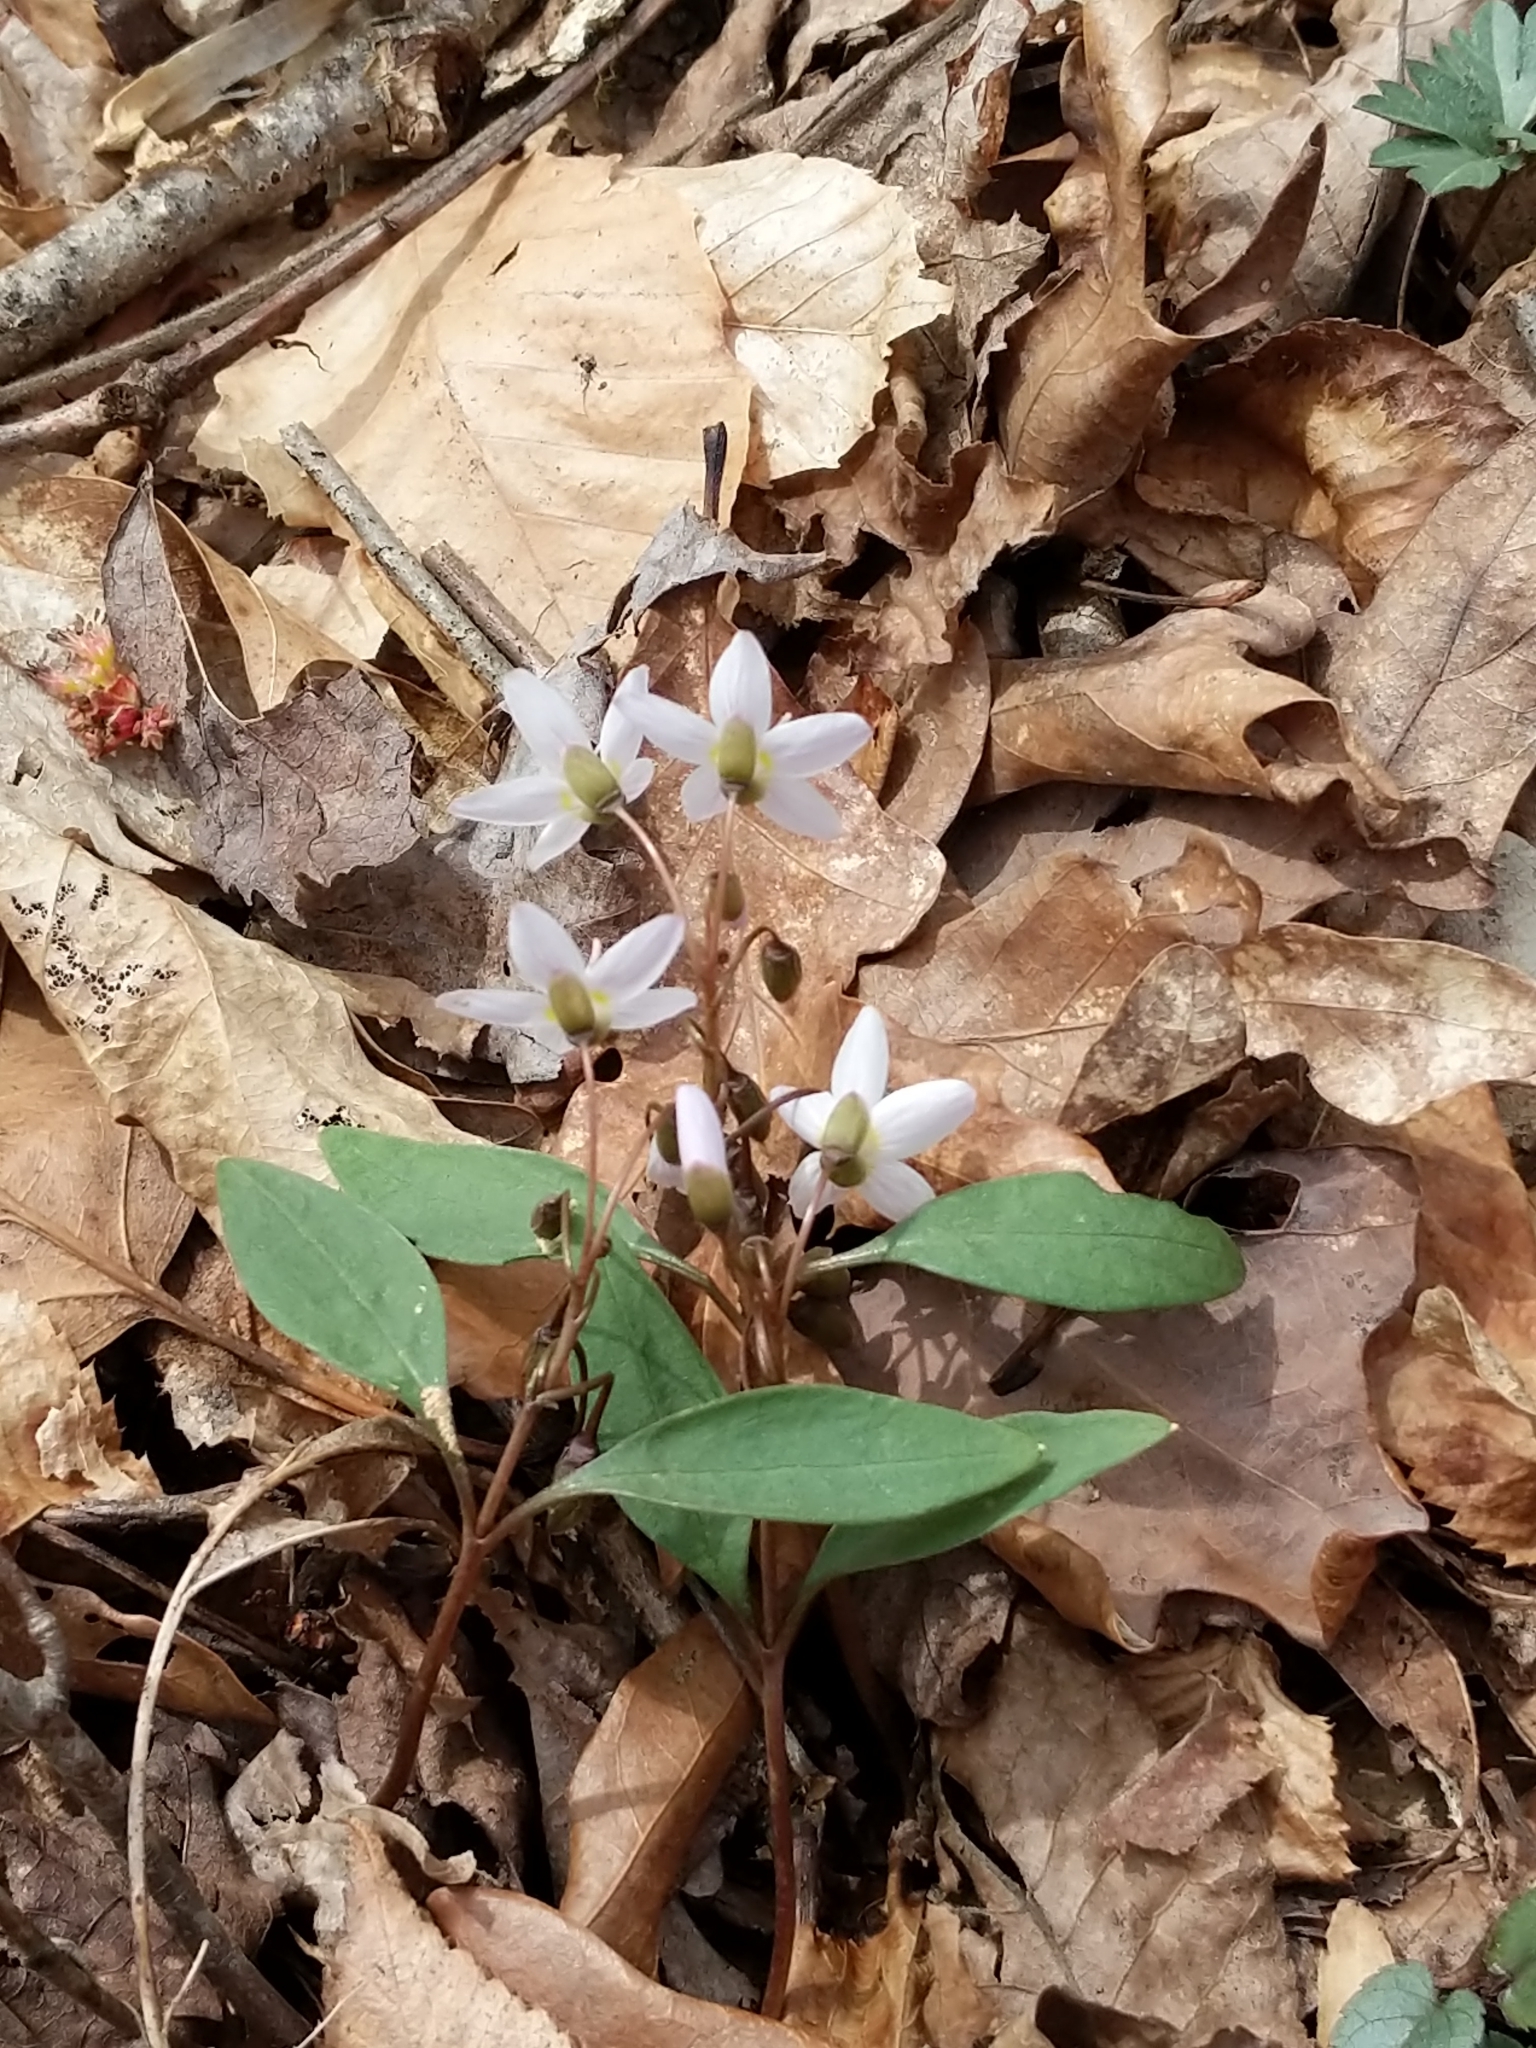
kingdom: Plantae
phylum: Tracheophyta
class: Magnoliopsida
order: Caryophyllales
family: Montiaceae
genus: Claytonia
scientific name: Claytonia caroliniana
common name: Carolina spring beauty
